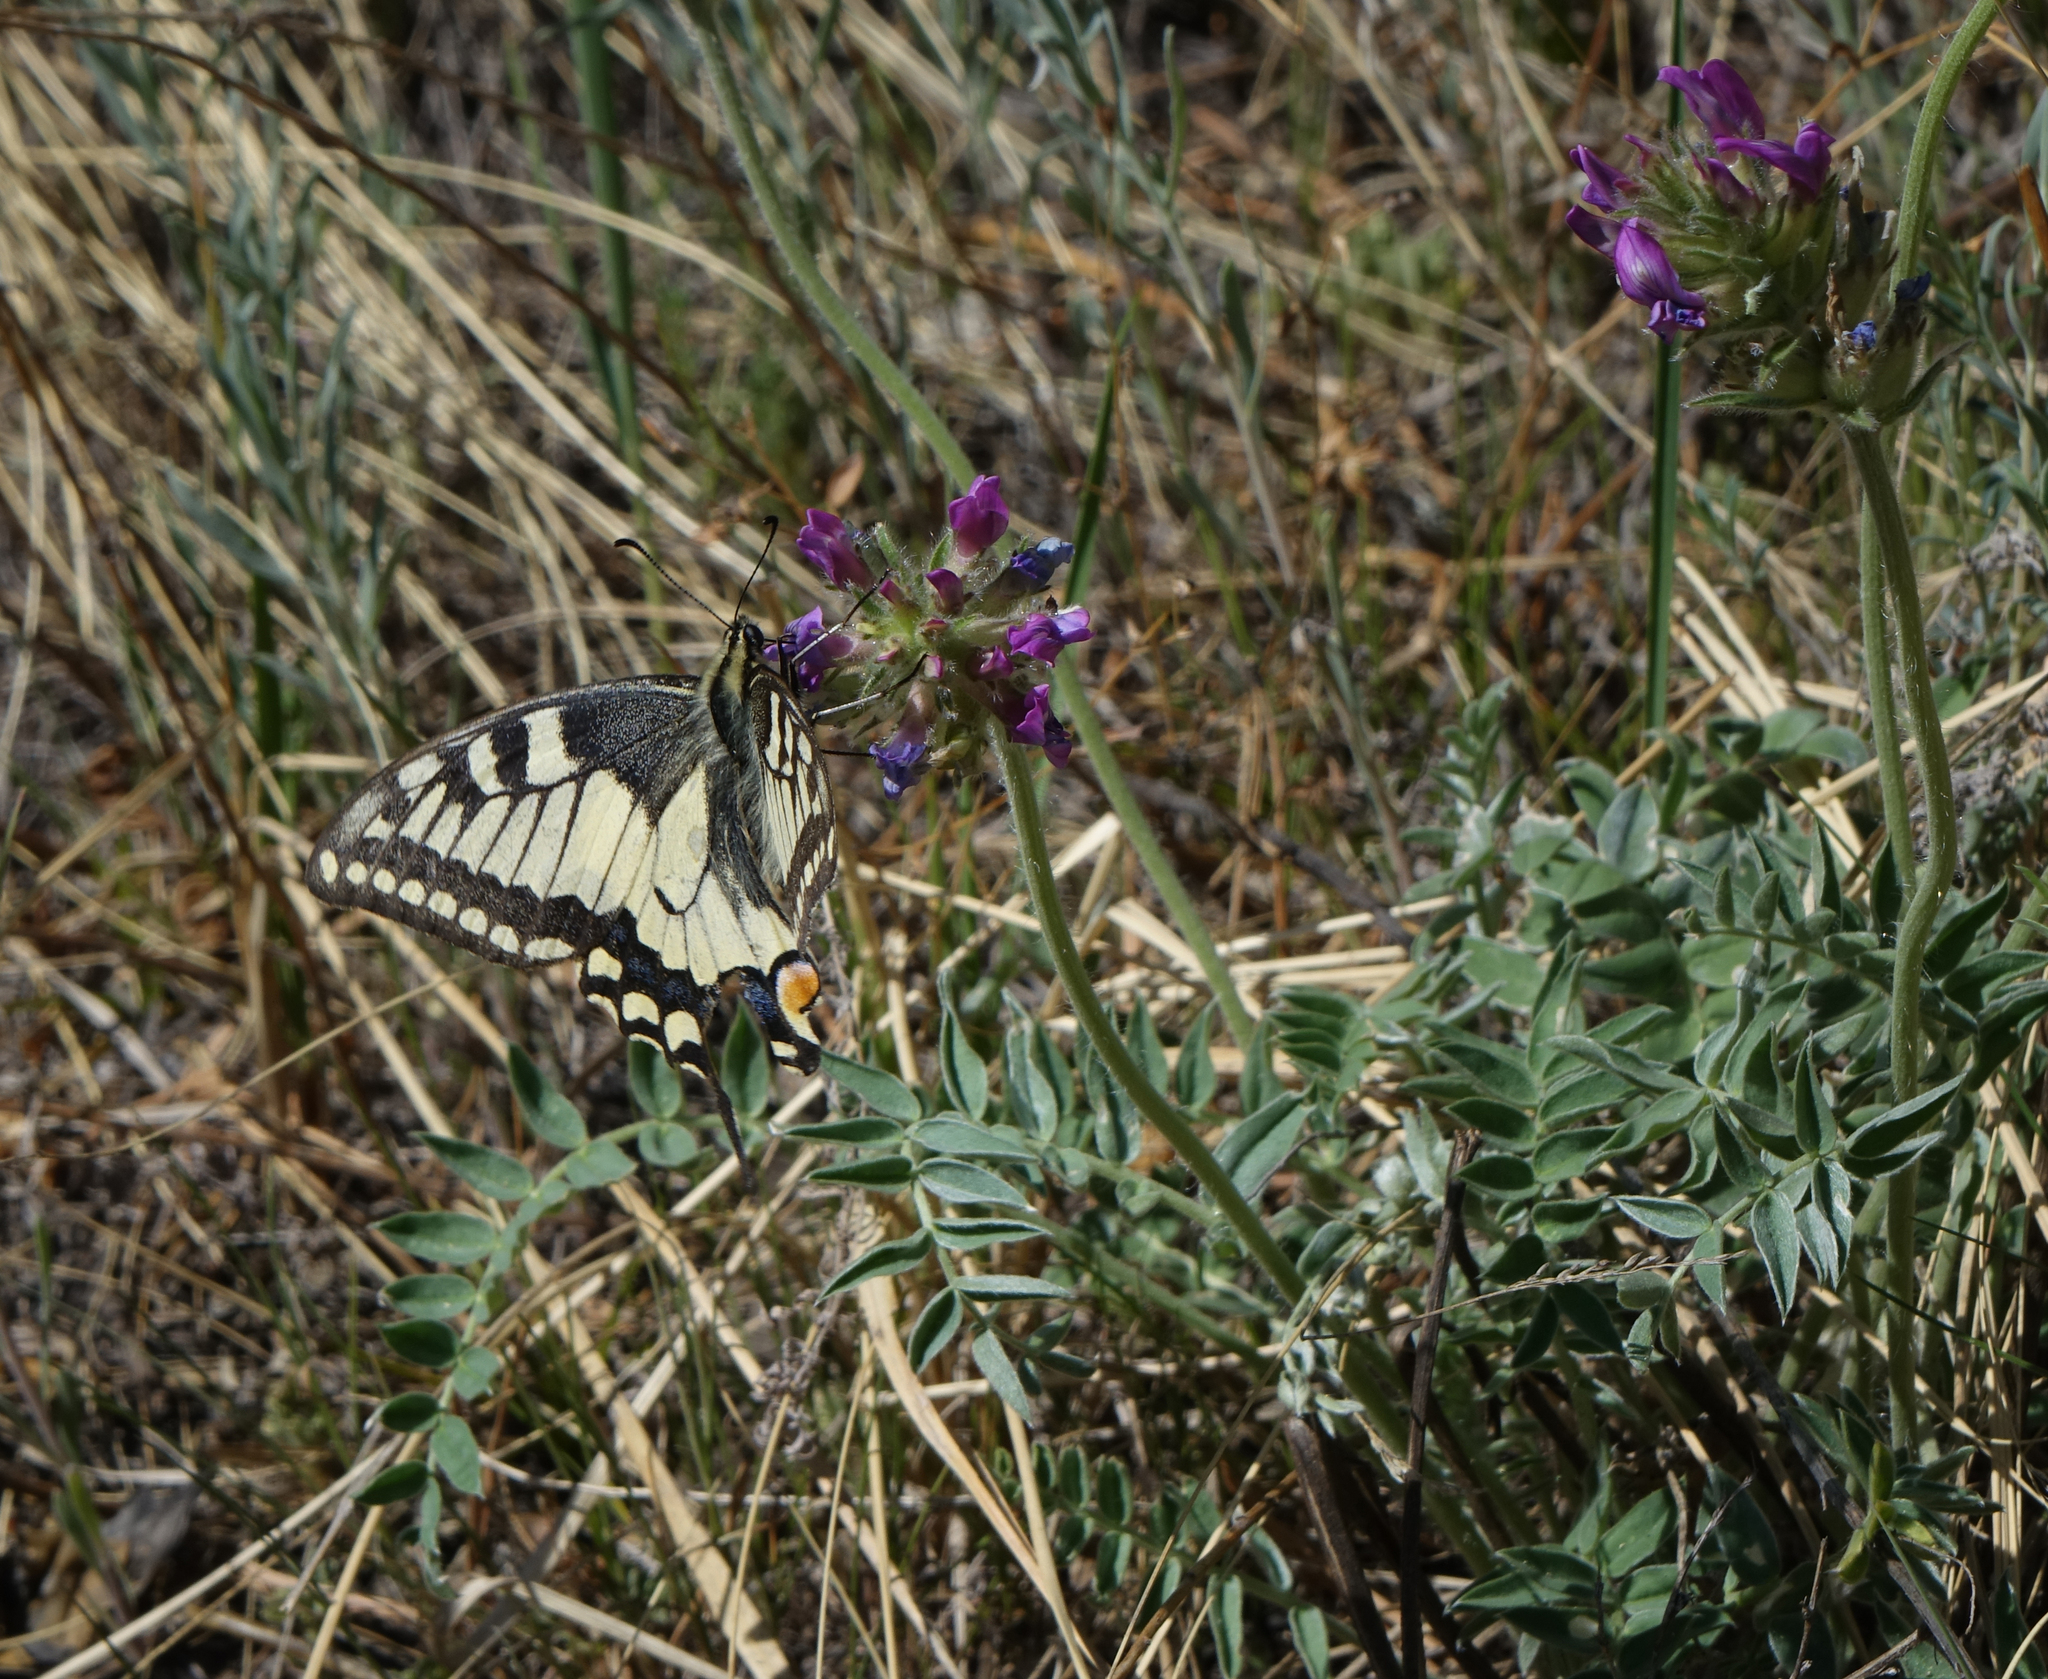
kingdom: Plantae
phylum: Tracheophyta
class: Magnoliopsida
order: Fabales
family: Fabaceae
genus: Oxytropis
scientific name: Oxytropis strobilacea
